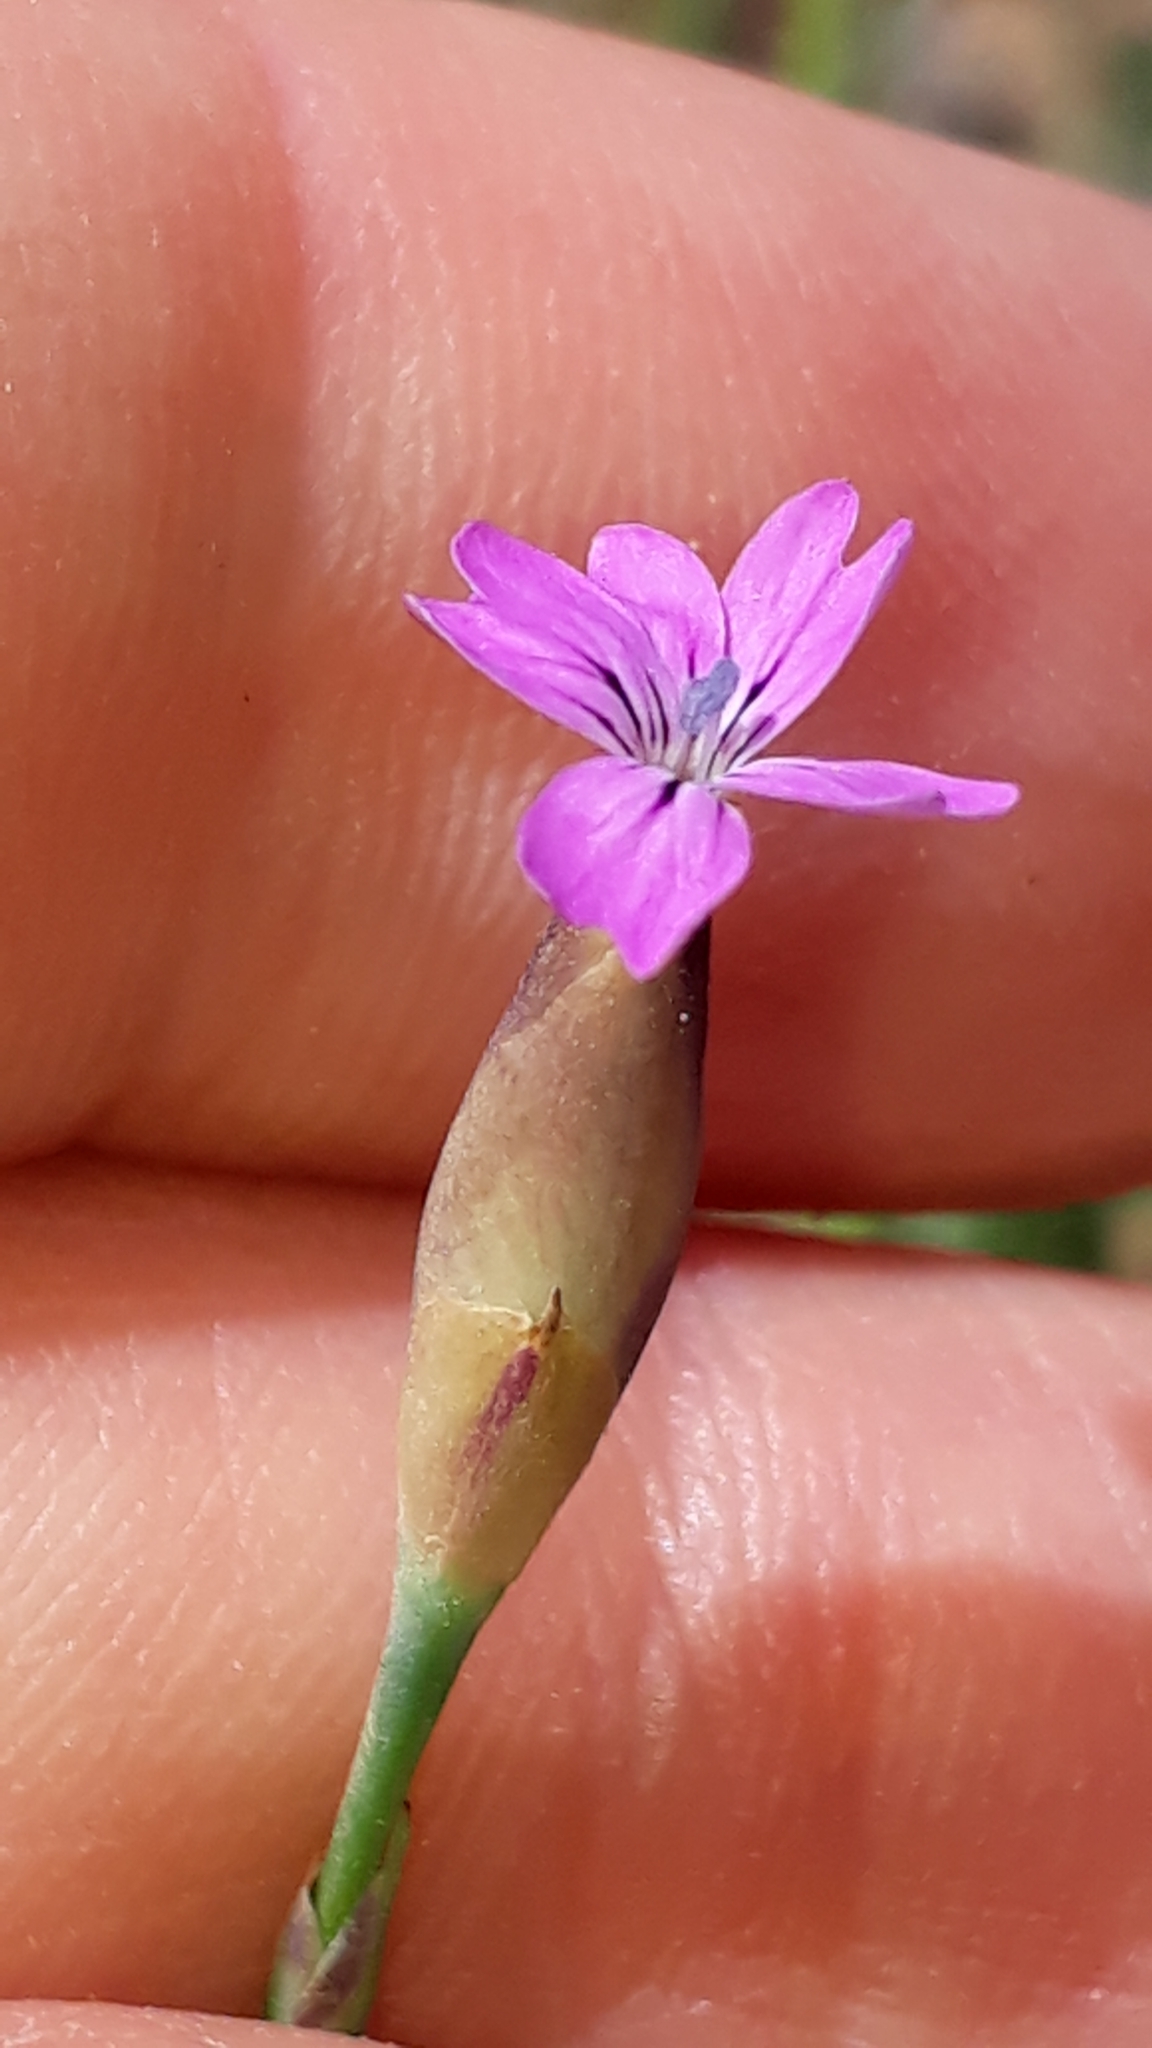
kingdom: Plantae
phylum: Tracheophyta
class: Magnoliopsida
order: Caryophyllales
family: Caryophyllaceae
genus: Petrorhagia
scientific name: Petrorhagia dubia
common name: Hairypink
